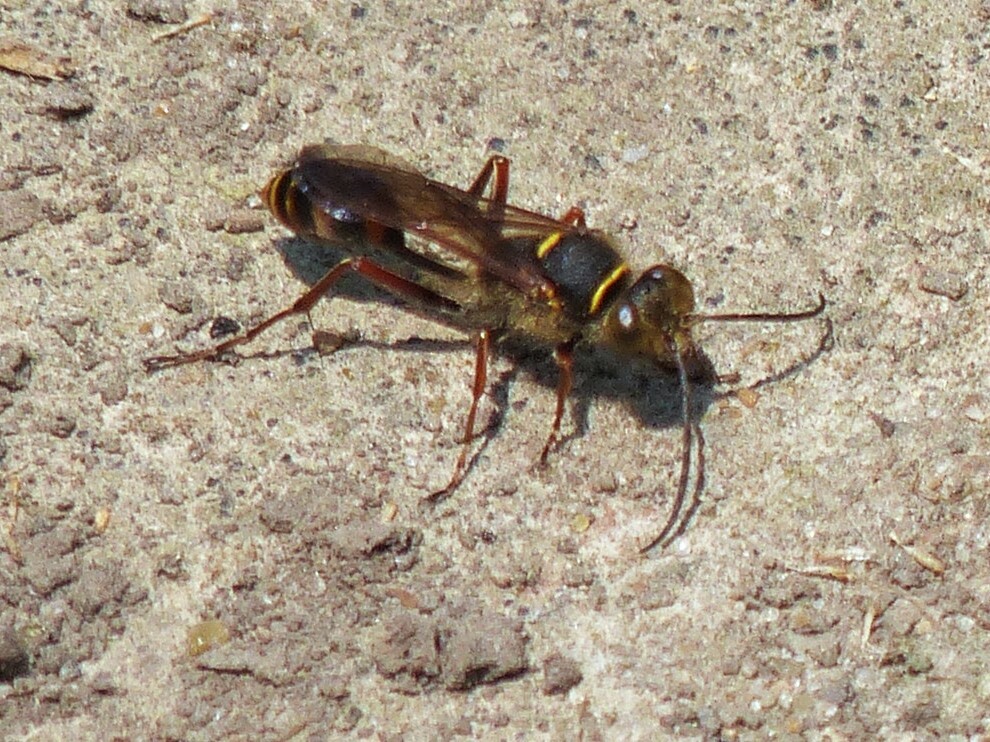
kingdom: Animalia
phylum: Arthropoda
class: Insecta
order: Hymenoptera
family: Sphecidae
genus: Sceliphron
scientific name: Sceliphron curvatum
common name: Pèlopèe
